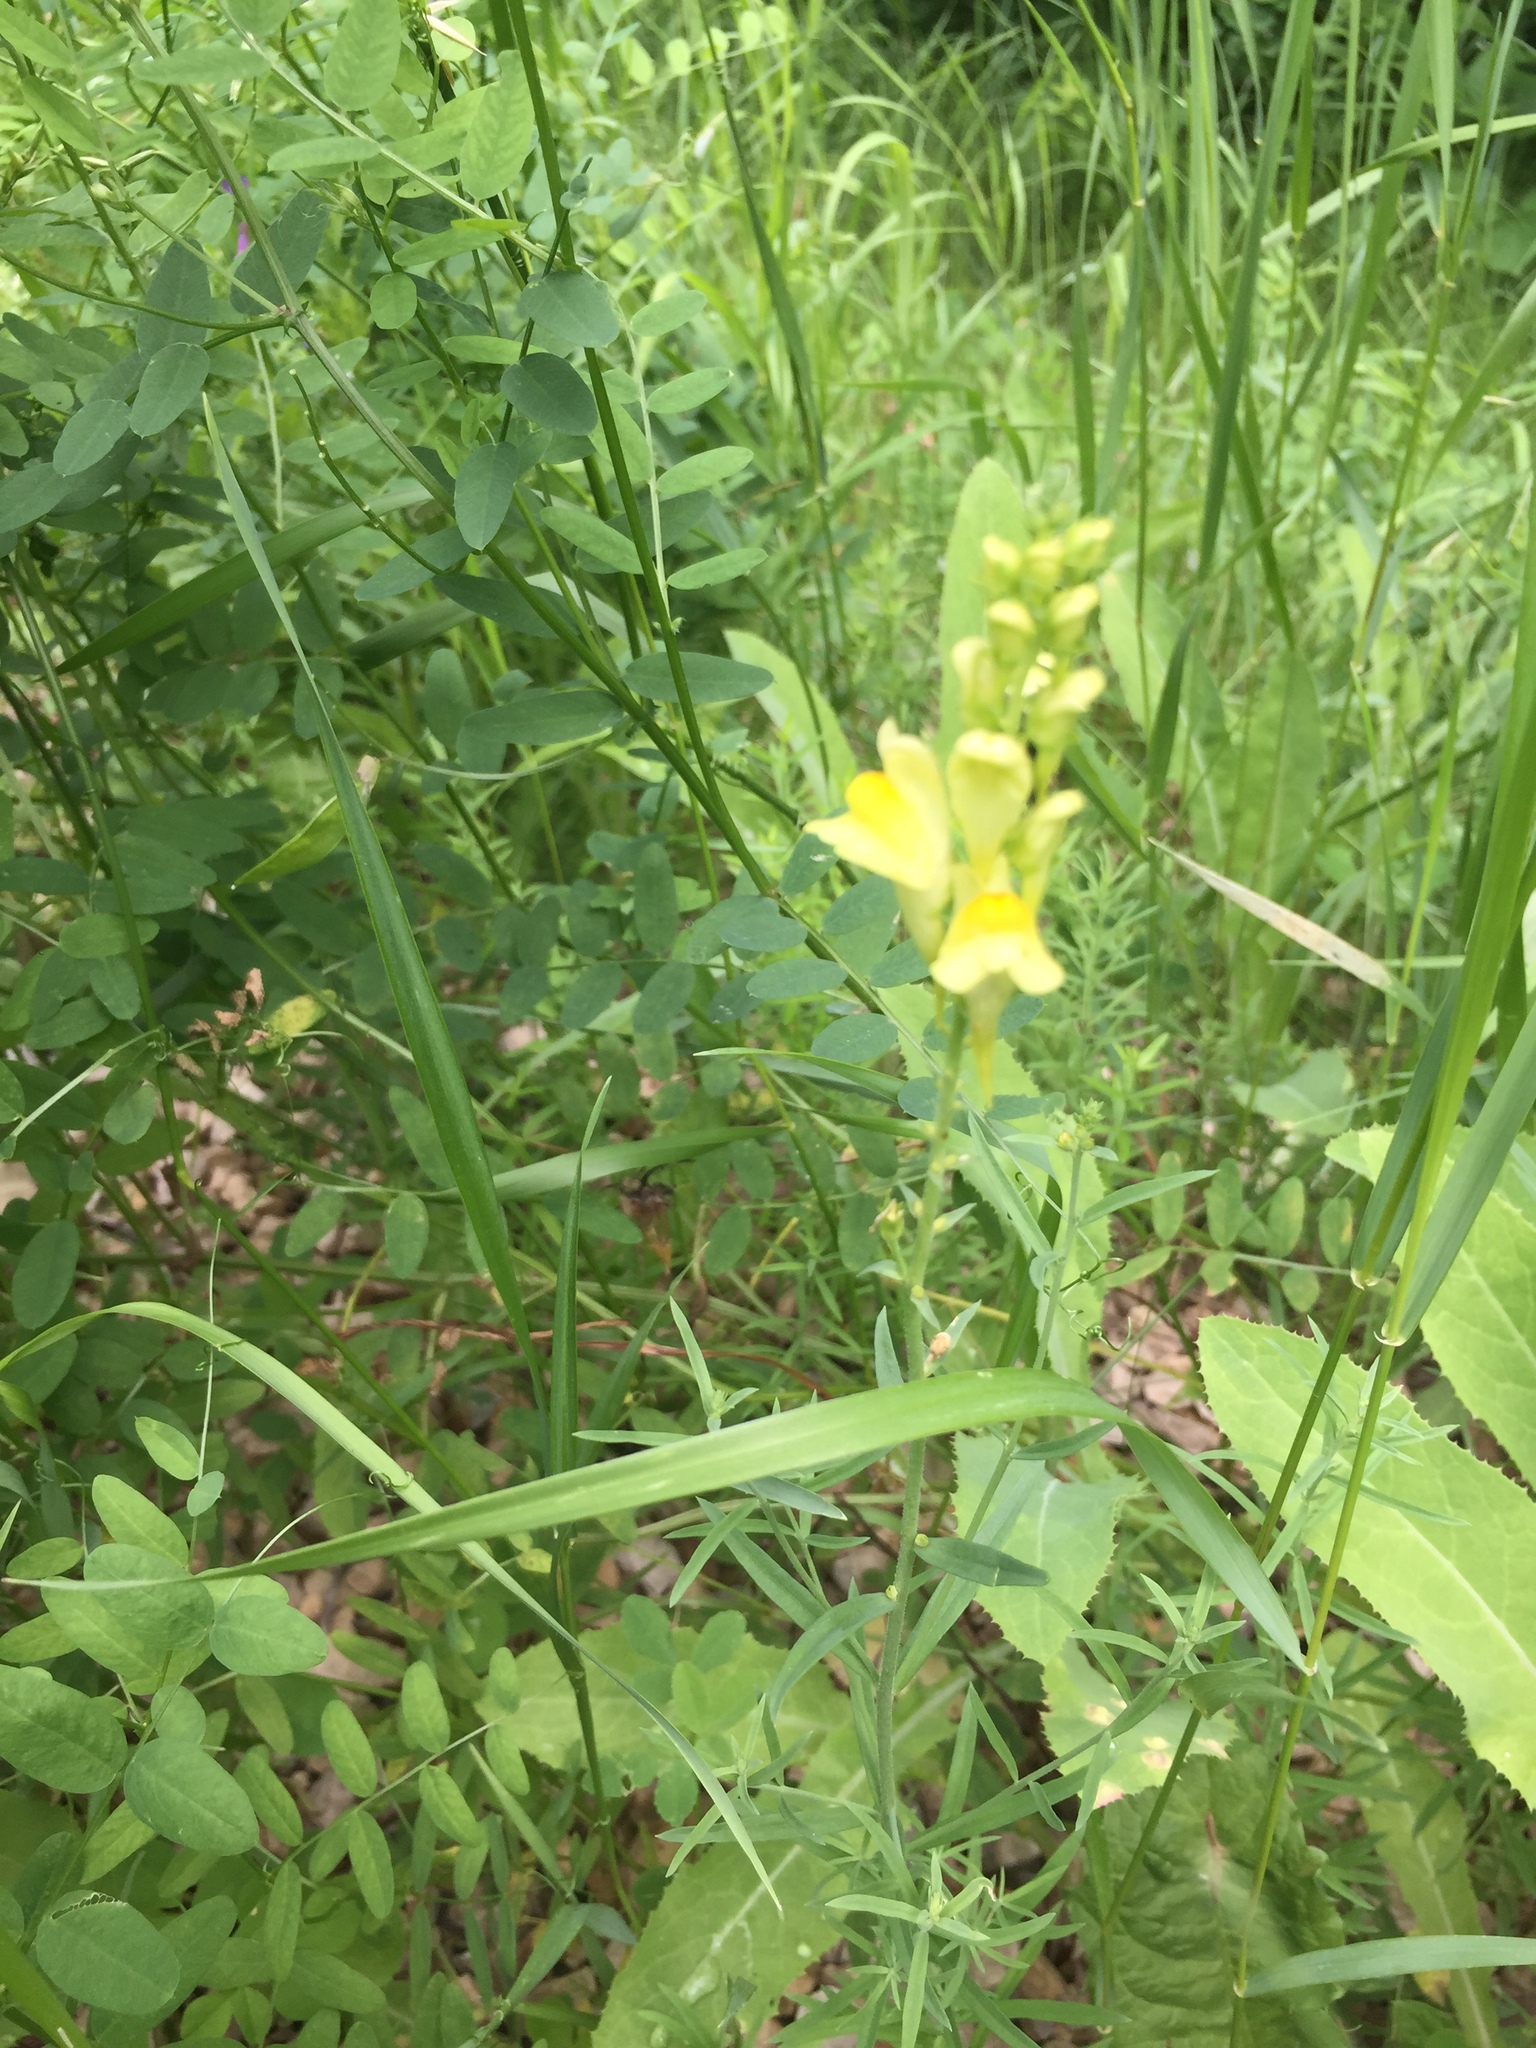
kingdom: Plantae
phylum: Tracheophyta
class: Magnoliopsida
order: Lamiales
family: Plantaginaceae
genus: Linaria
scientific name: Linaria vulgaris
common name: Butter and eggs
